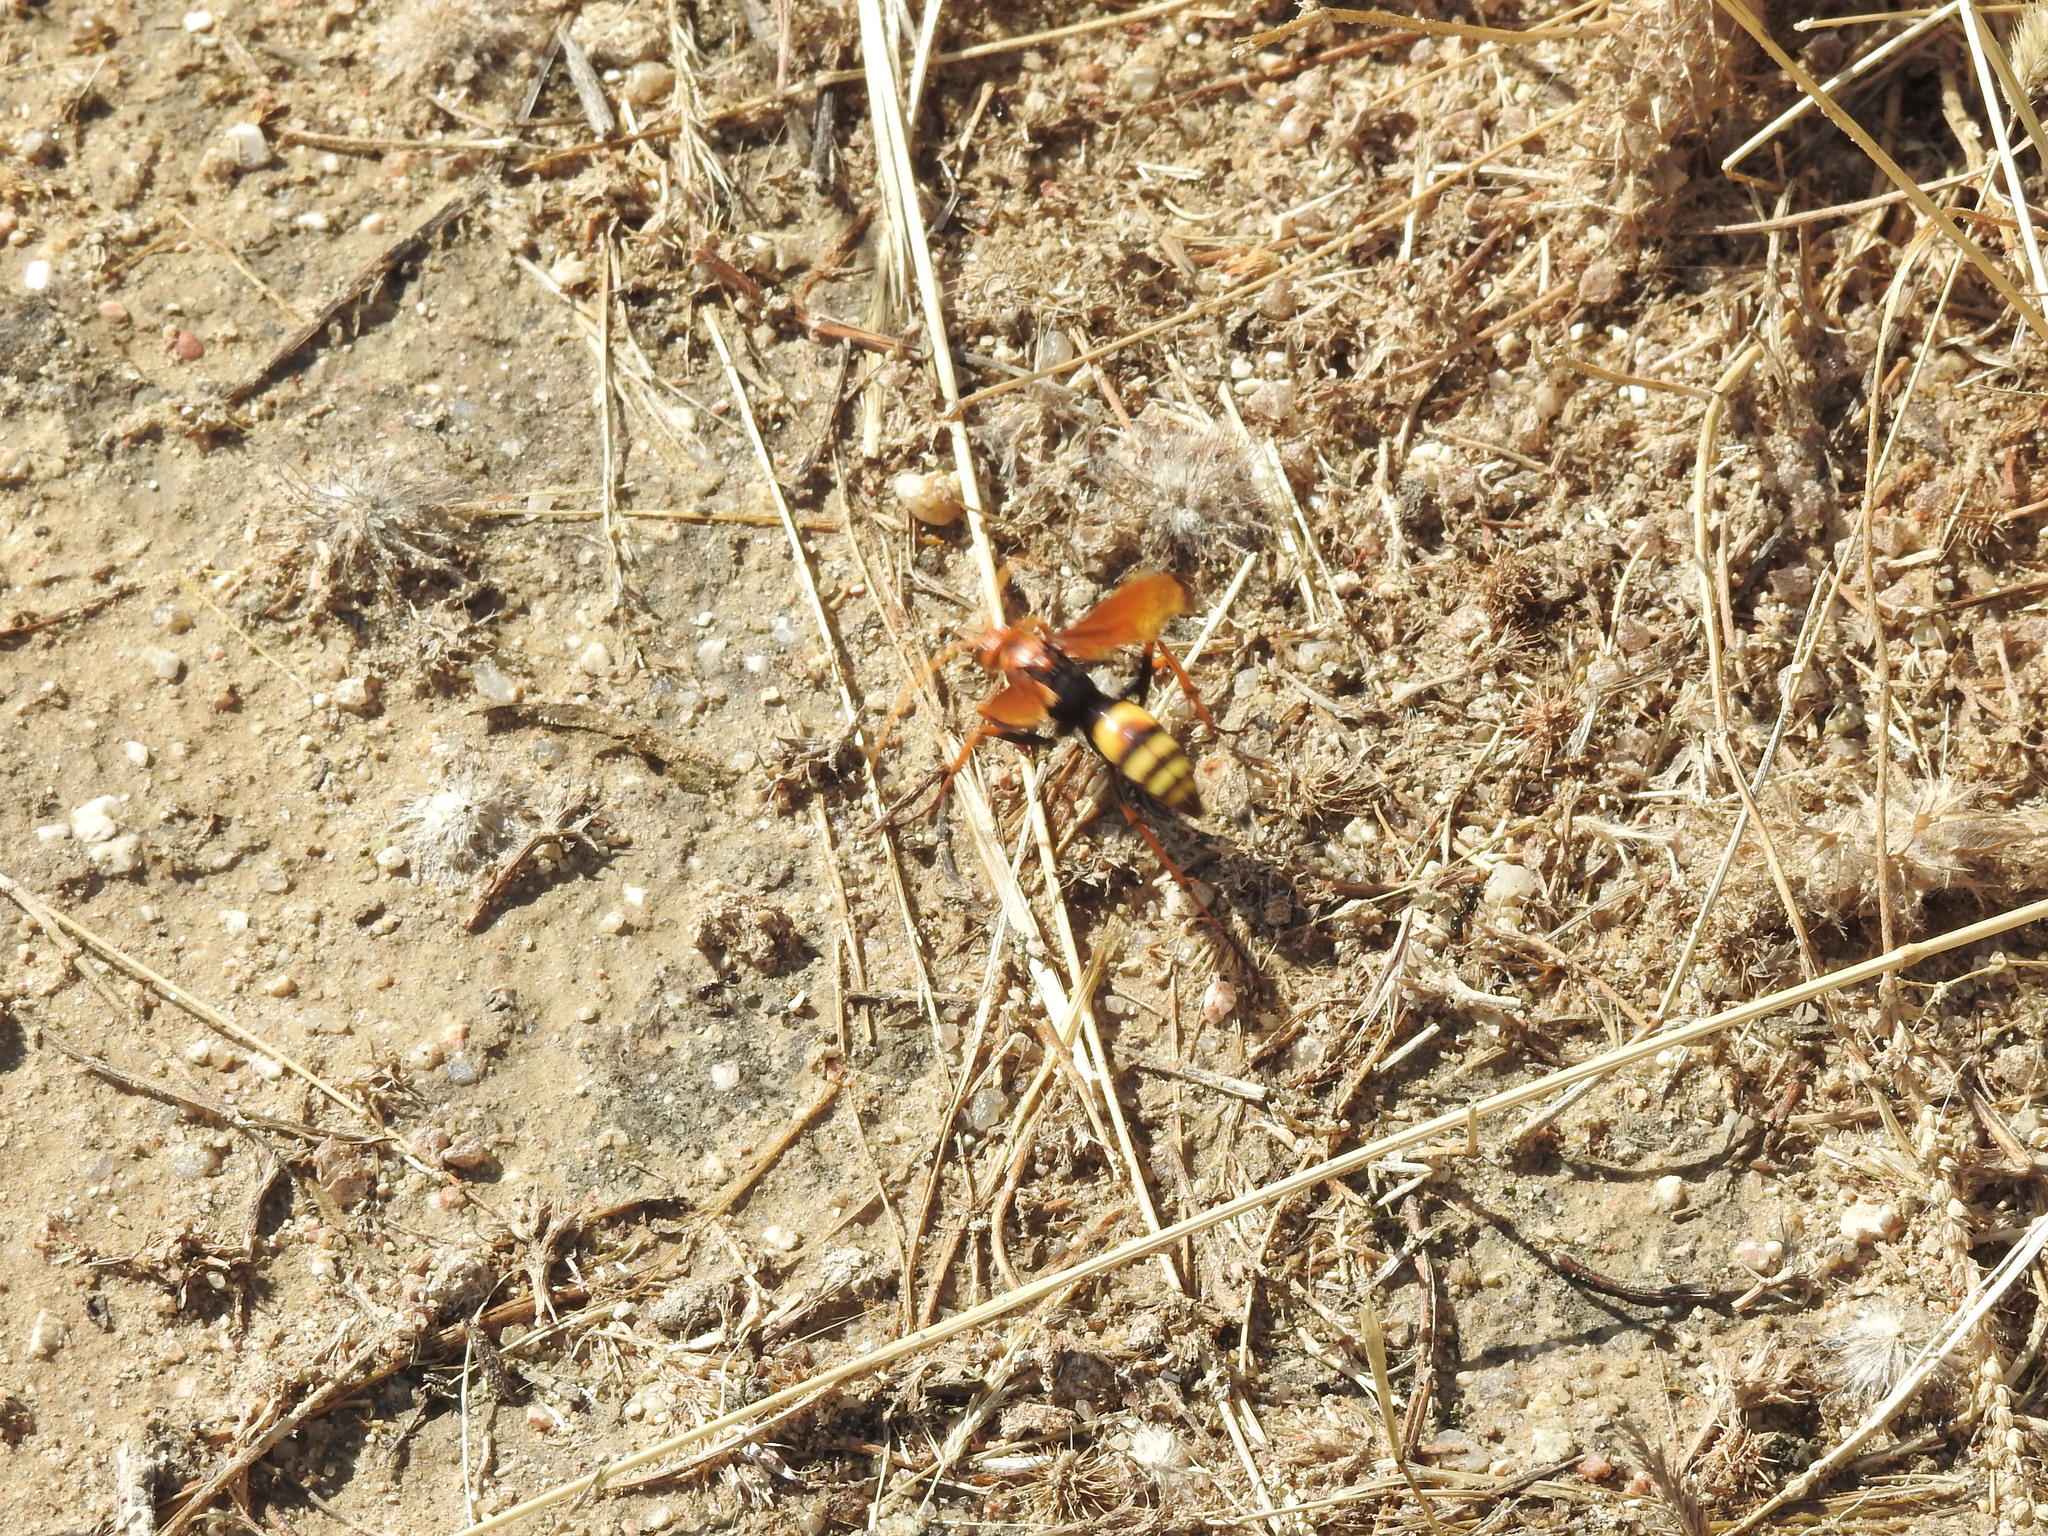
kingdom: Animalia
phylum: Arthropoda
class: Insecta
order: Hymenoptera
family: Pompilidae
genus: Cryptocheilus
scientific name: Cryptocheilus alternatus
